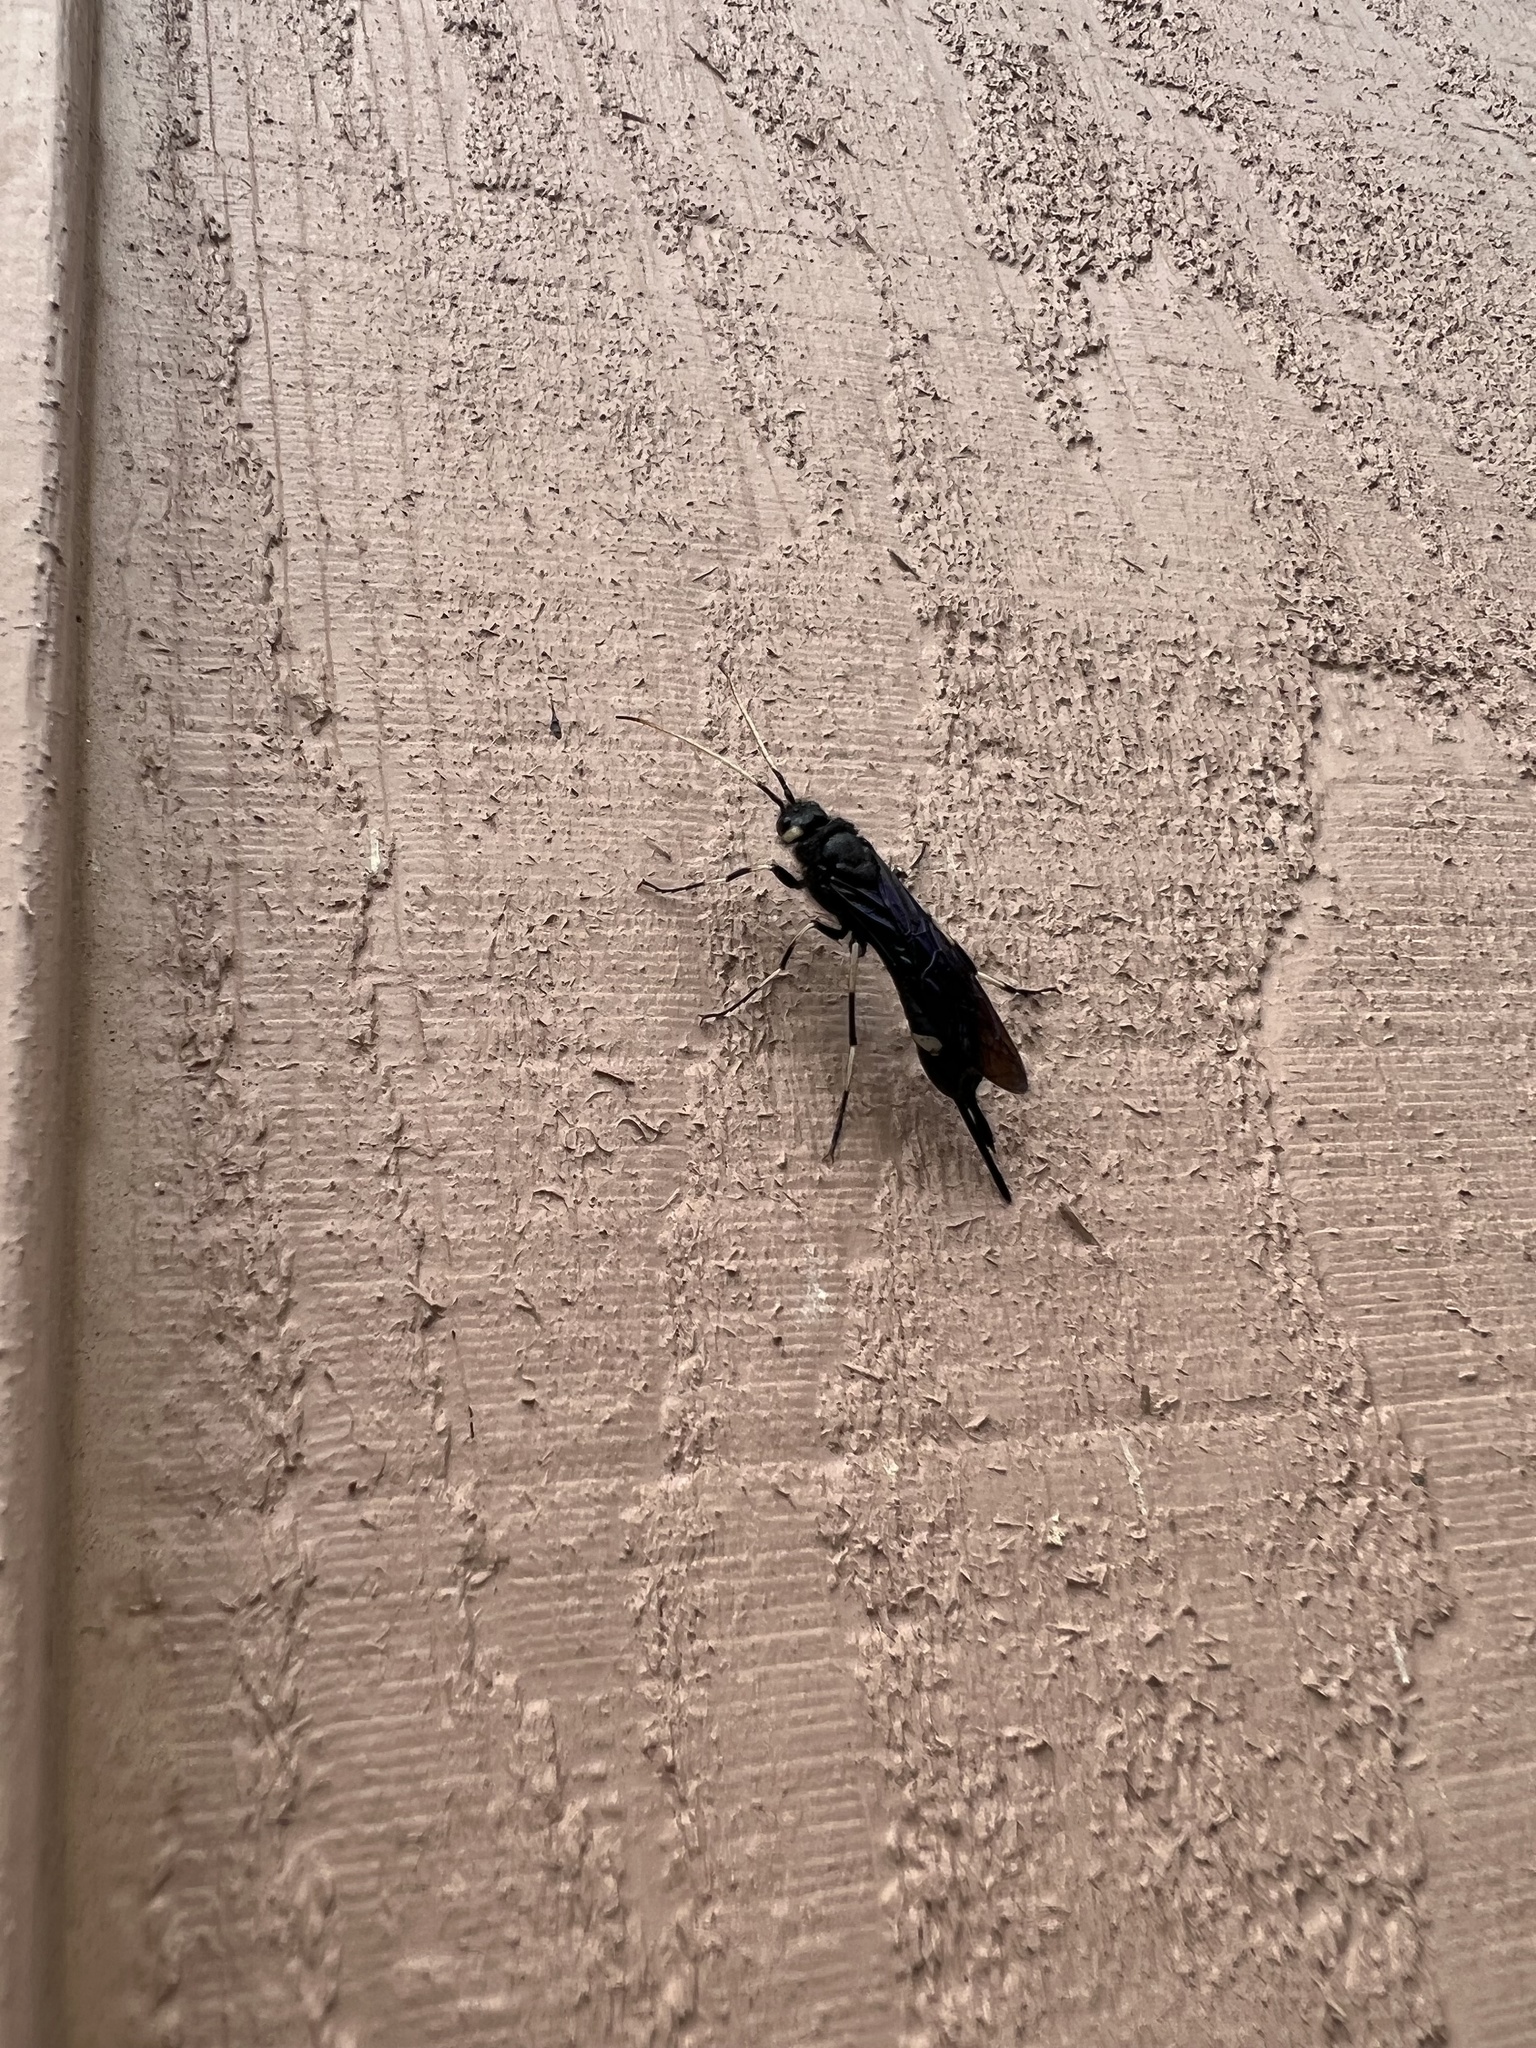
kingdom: Animalia
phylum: Arthropoda
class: Insecta
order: Hymenoptera
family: Siricidae
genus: Urocerus
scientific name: Urocerus albicornis
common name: White-horned horntail
